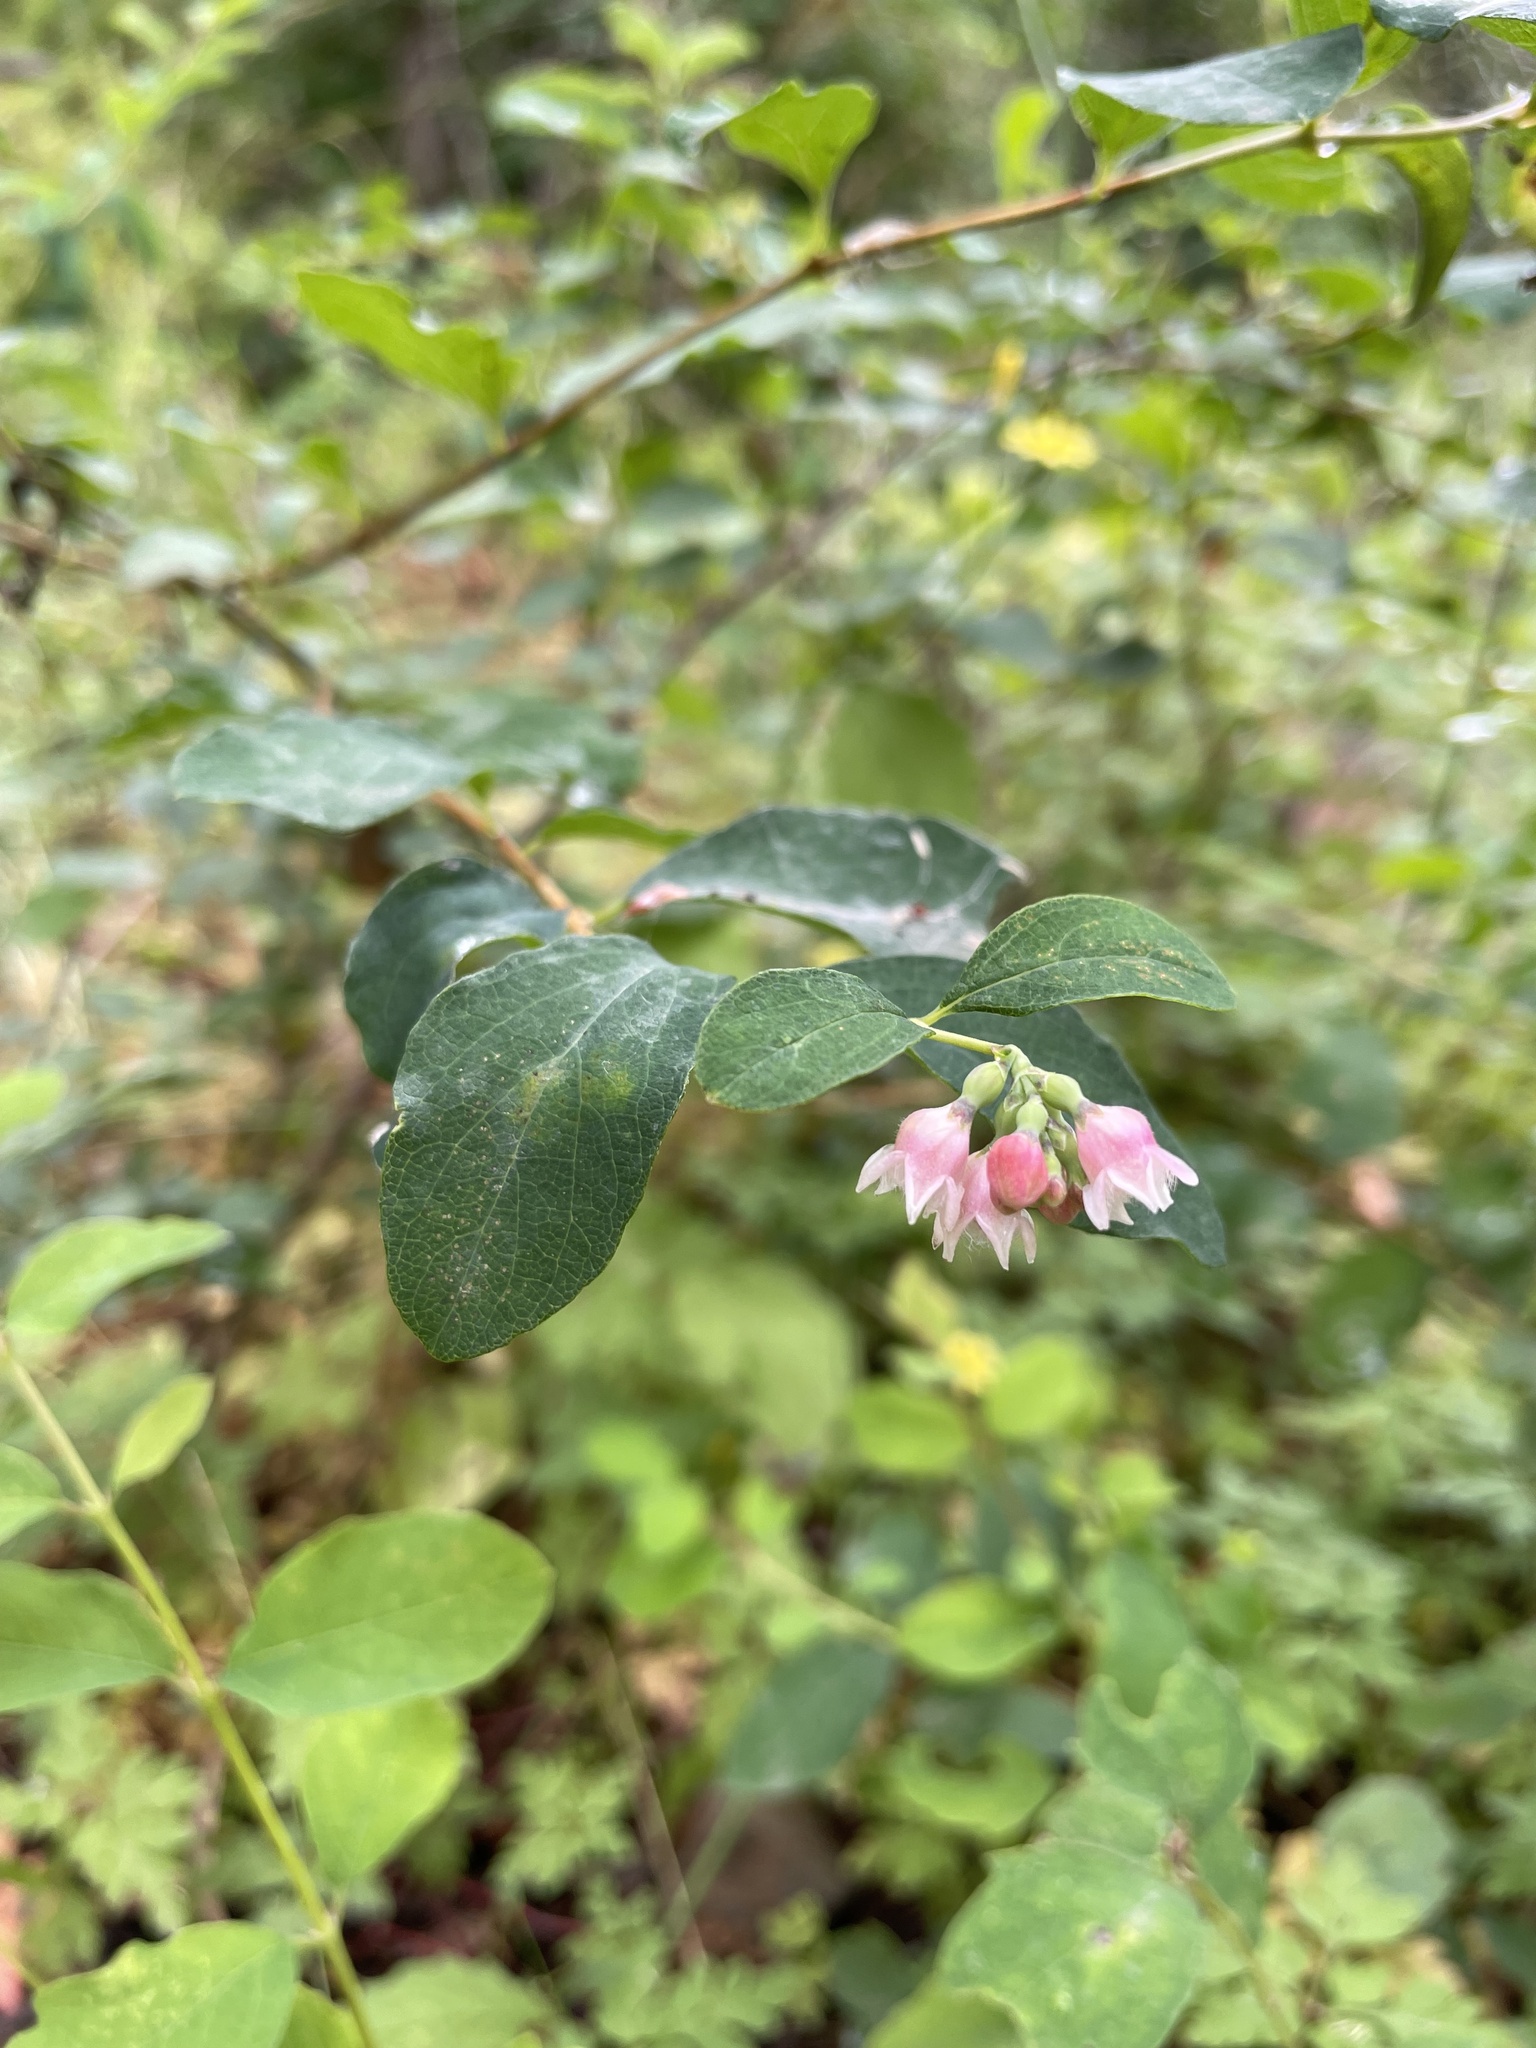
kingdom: Plantae
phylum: Tracheophyta
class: Magnoliopsida
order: Dipsacales
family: Caprifoliaceae
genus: Symphoricarpos
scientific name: Symphoricarpos albus
